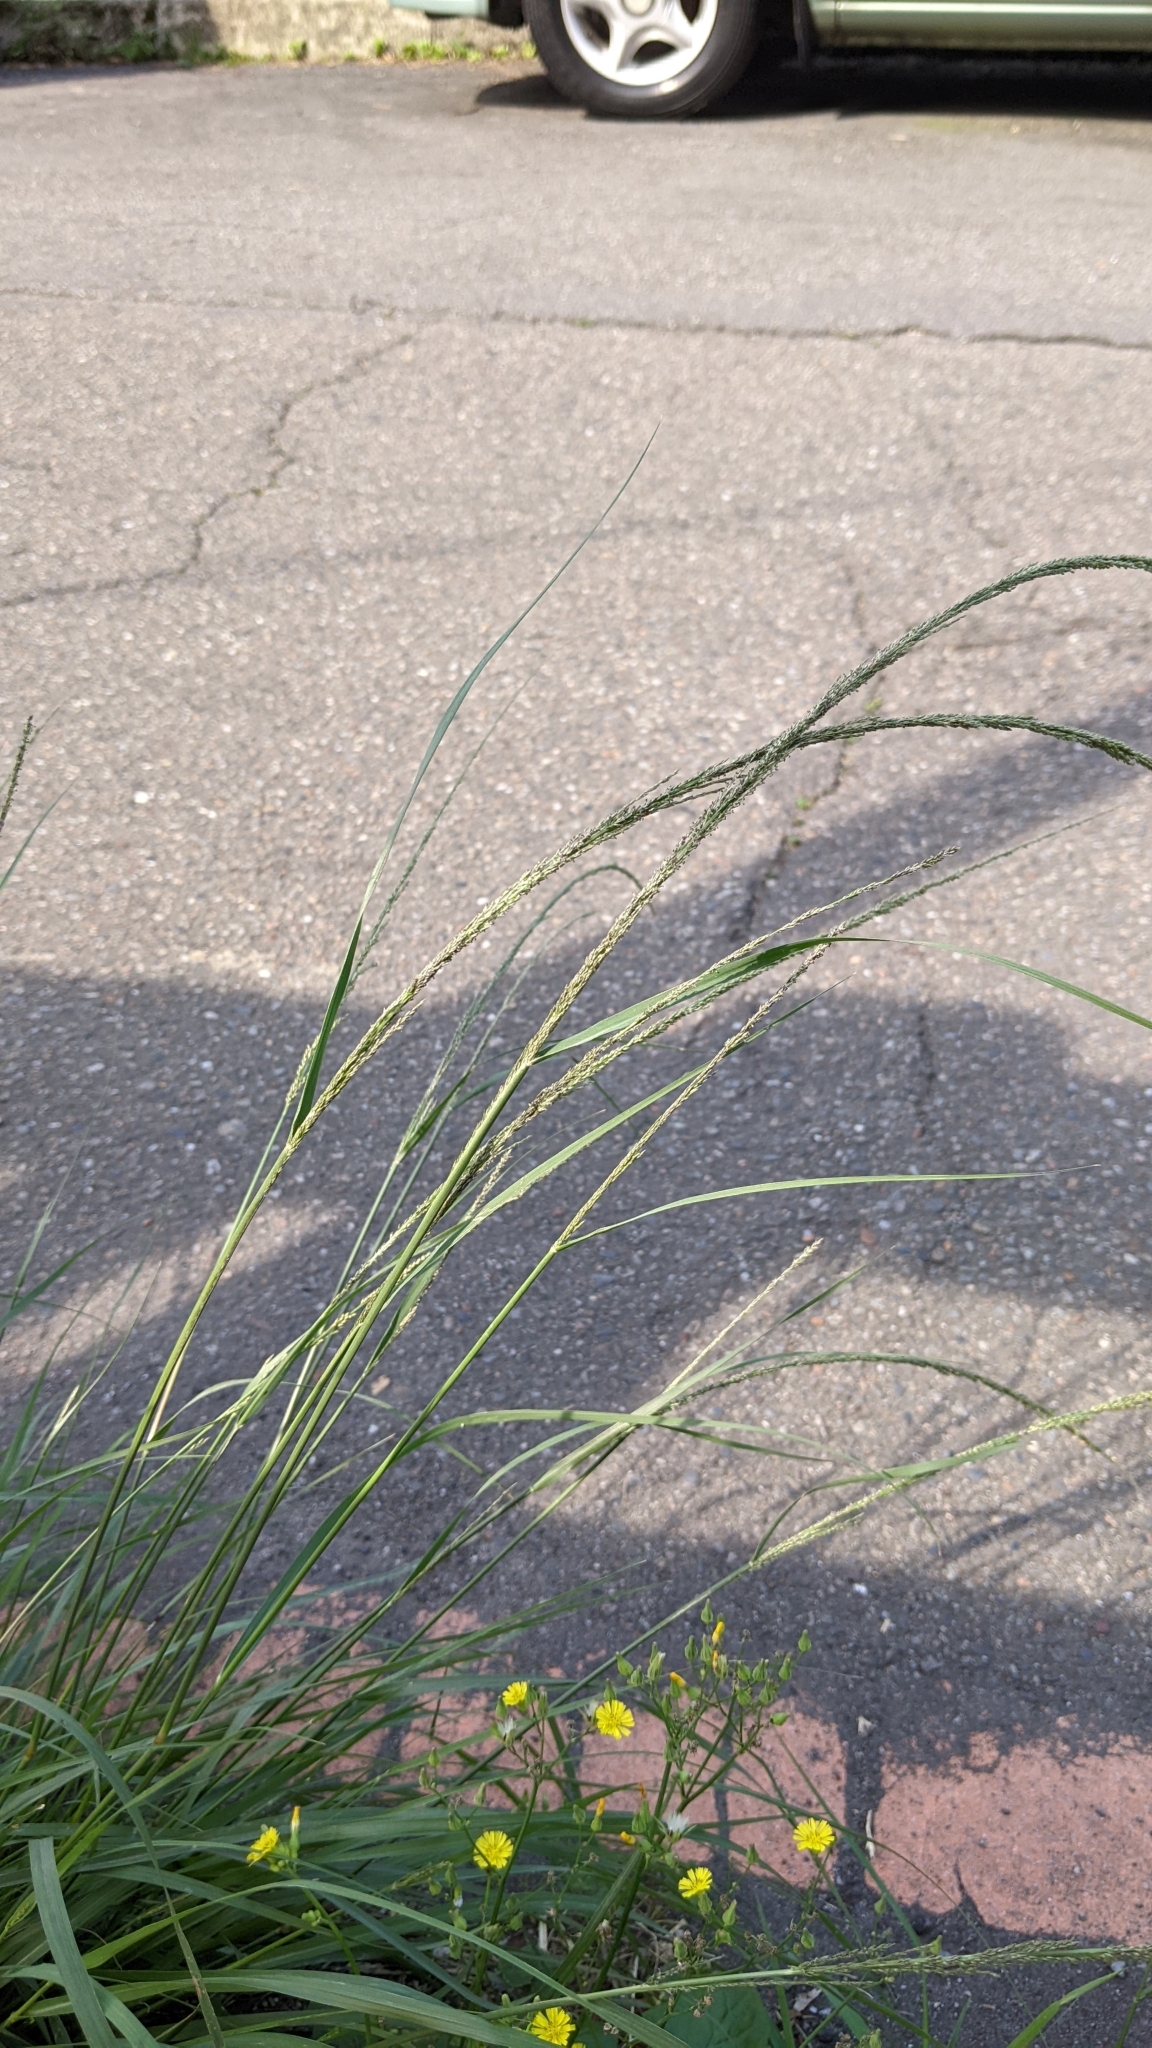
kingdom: Plantae
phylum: Tracheophyta
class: Liliopsida
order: Poales
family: Poaceae
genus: Sporobolus
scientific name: Sporobolus indicus
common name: Smut grass
